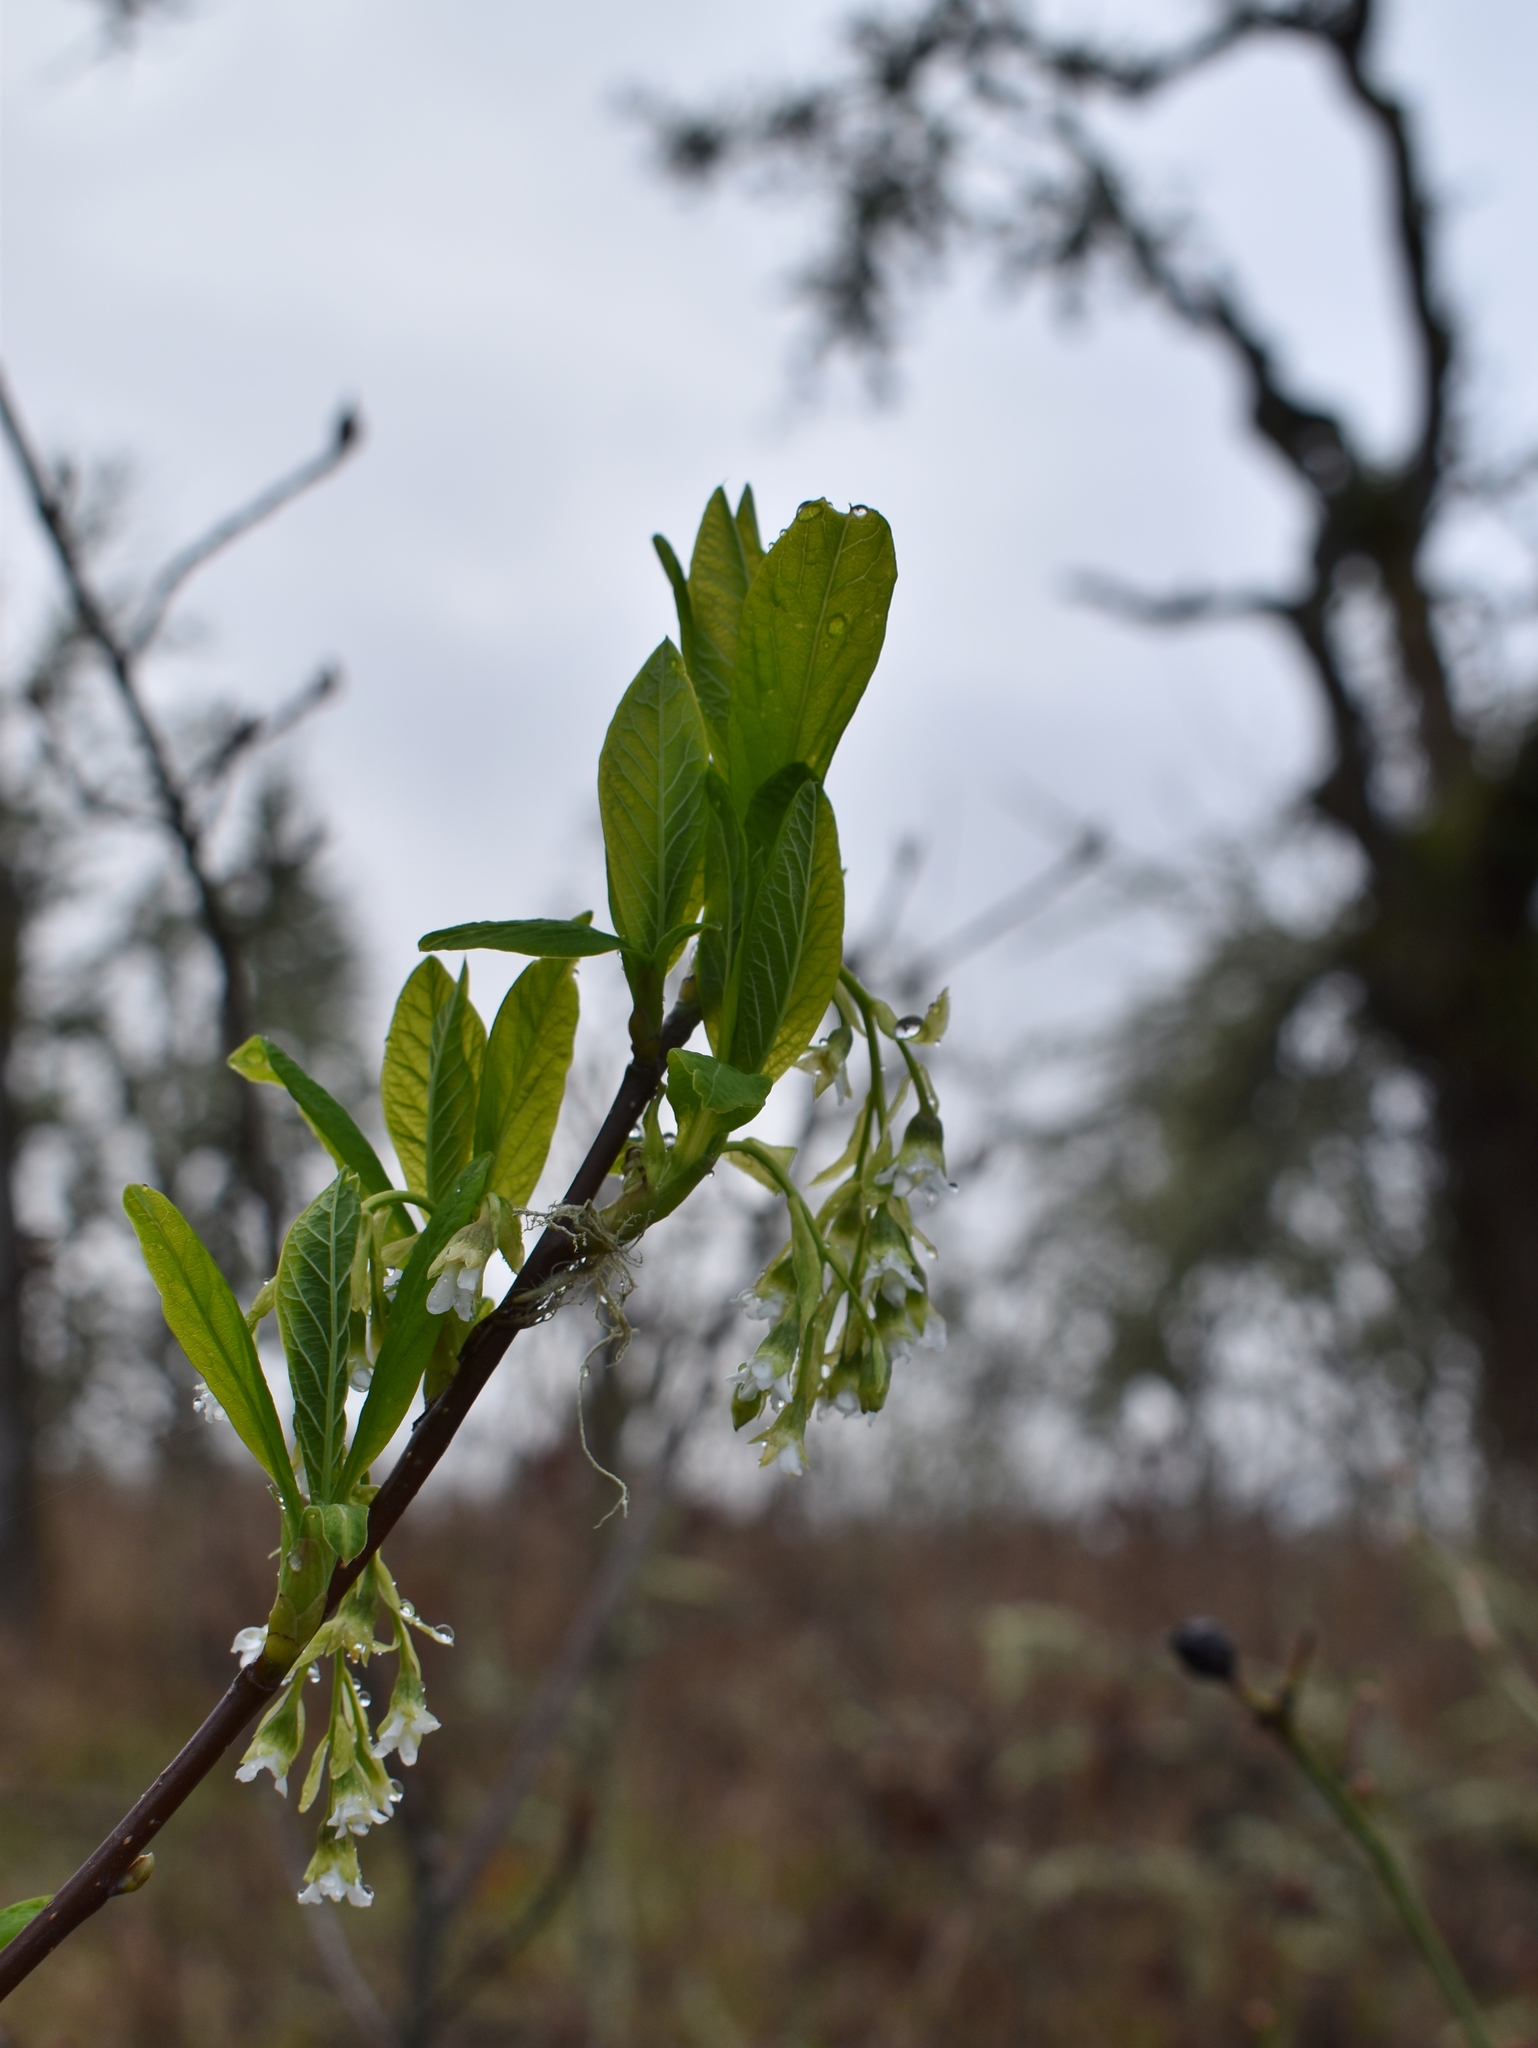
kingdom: Plantae
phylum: Tracheophyta
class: Magnoliopsida
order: Rosales
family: Rosaceae
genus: Oemleria
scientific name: Oemleria cerasiformis
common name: Osoberry
